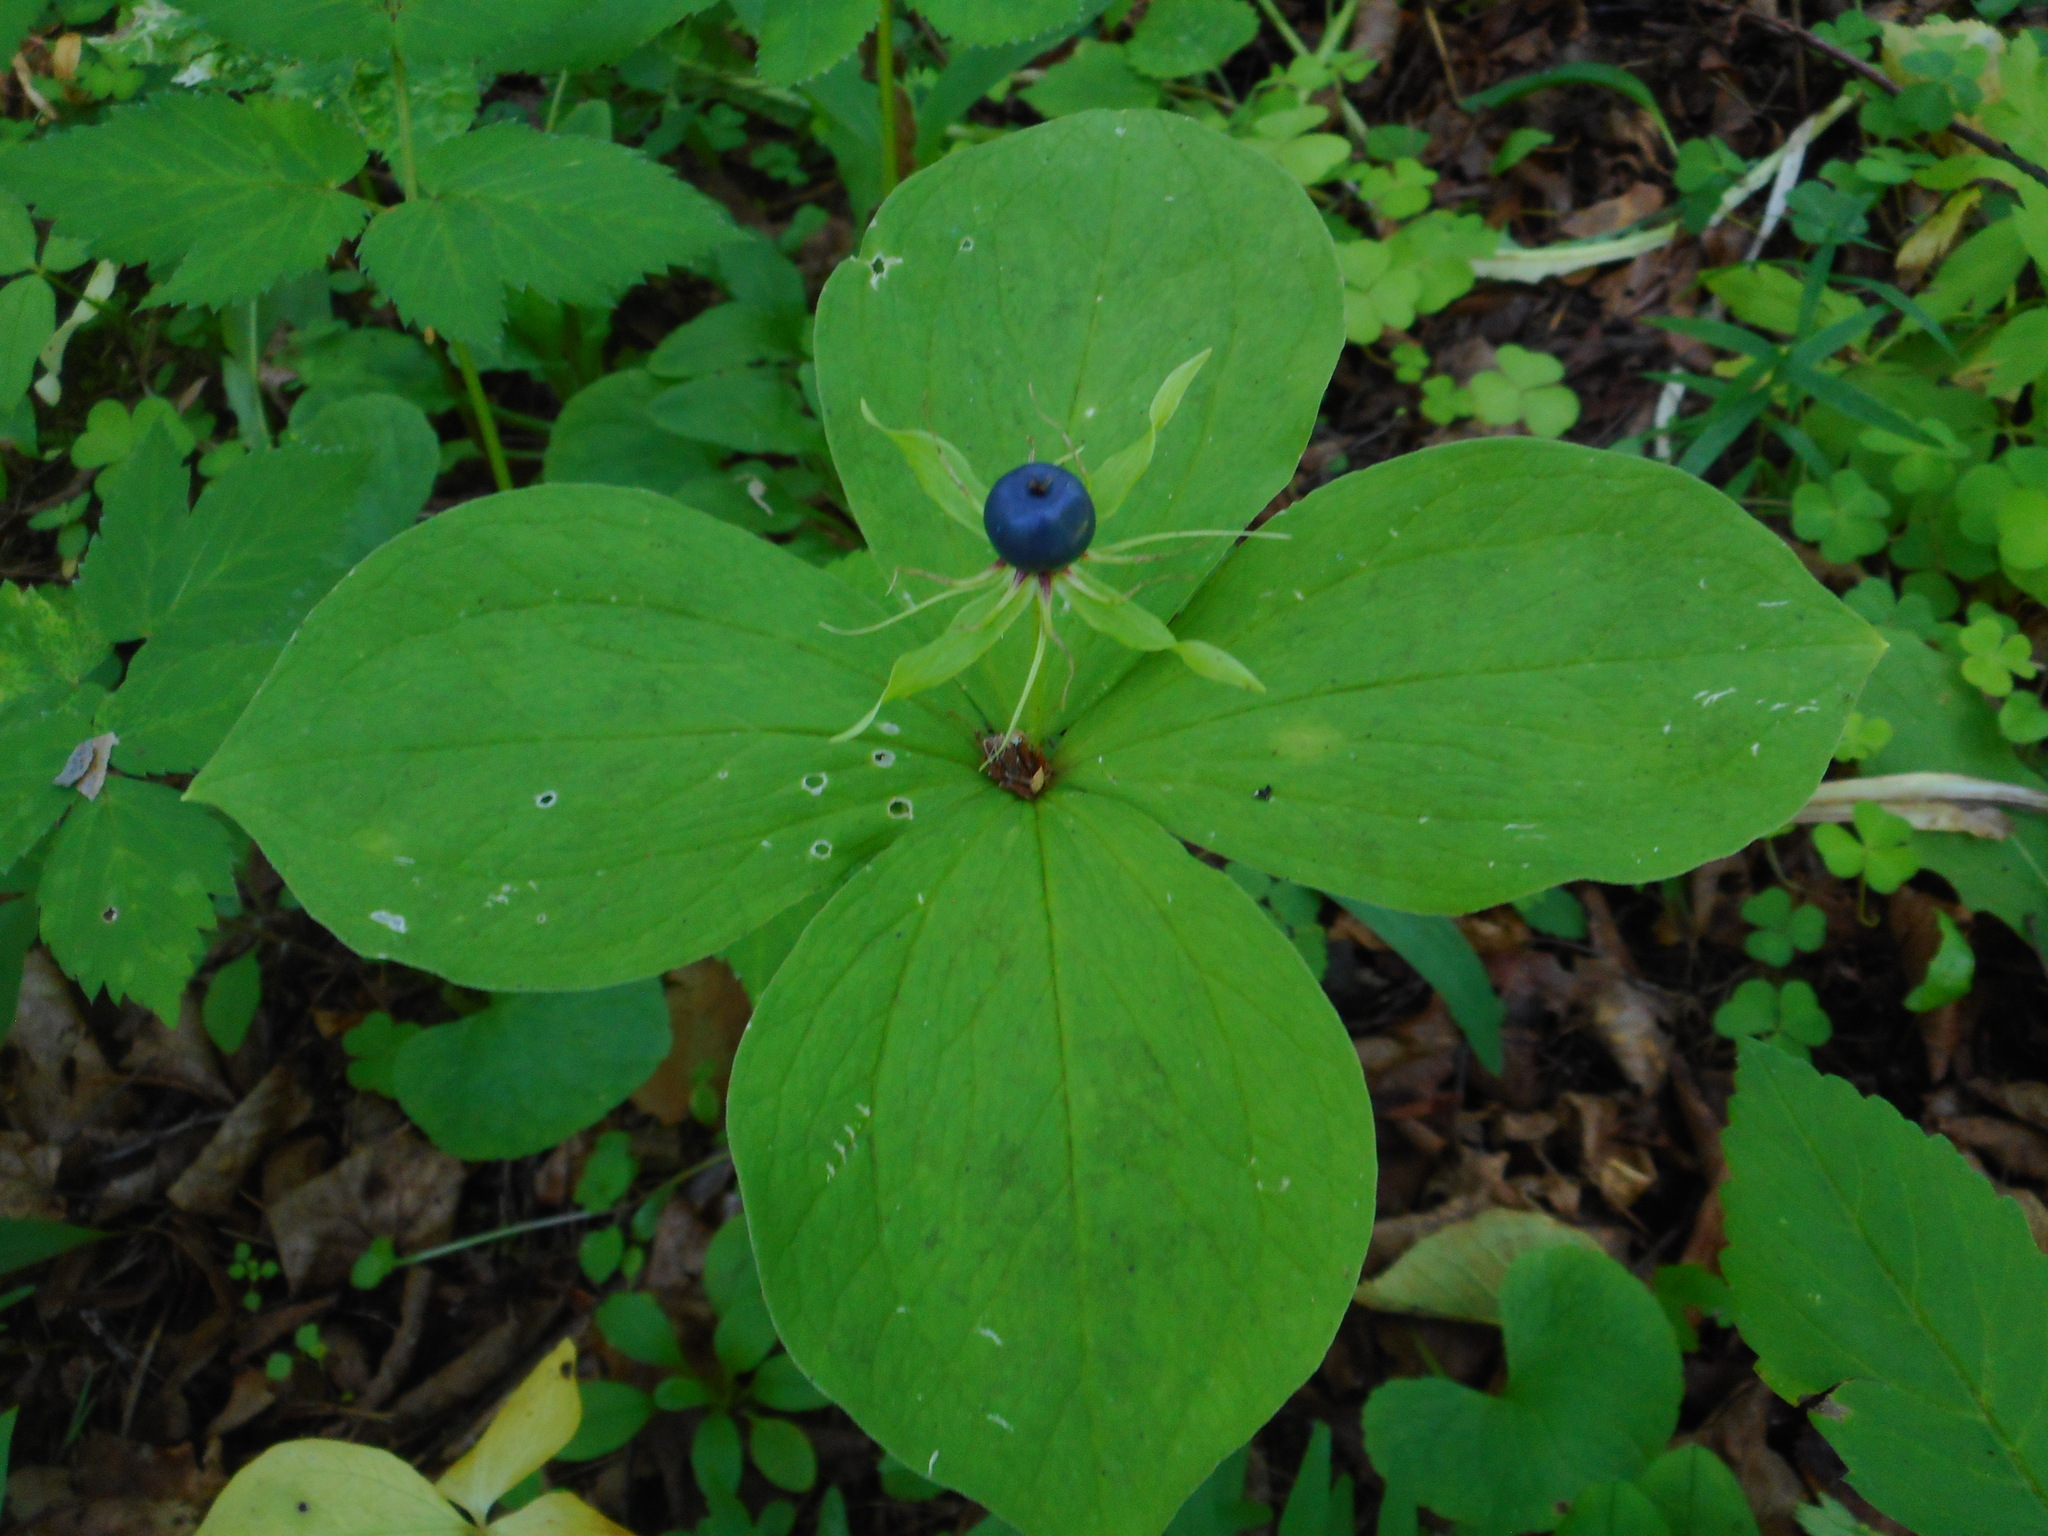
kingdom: Plantae
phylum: Tracheophyta
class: Liliopsida
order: Liliales
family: Melanthiaceae
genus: Paris
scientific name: Paris quadrifolia
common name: Herb-paris
